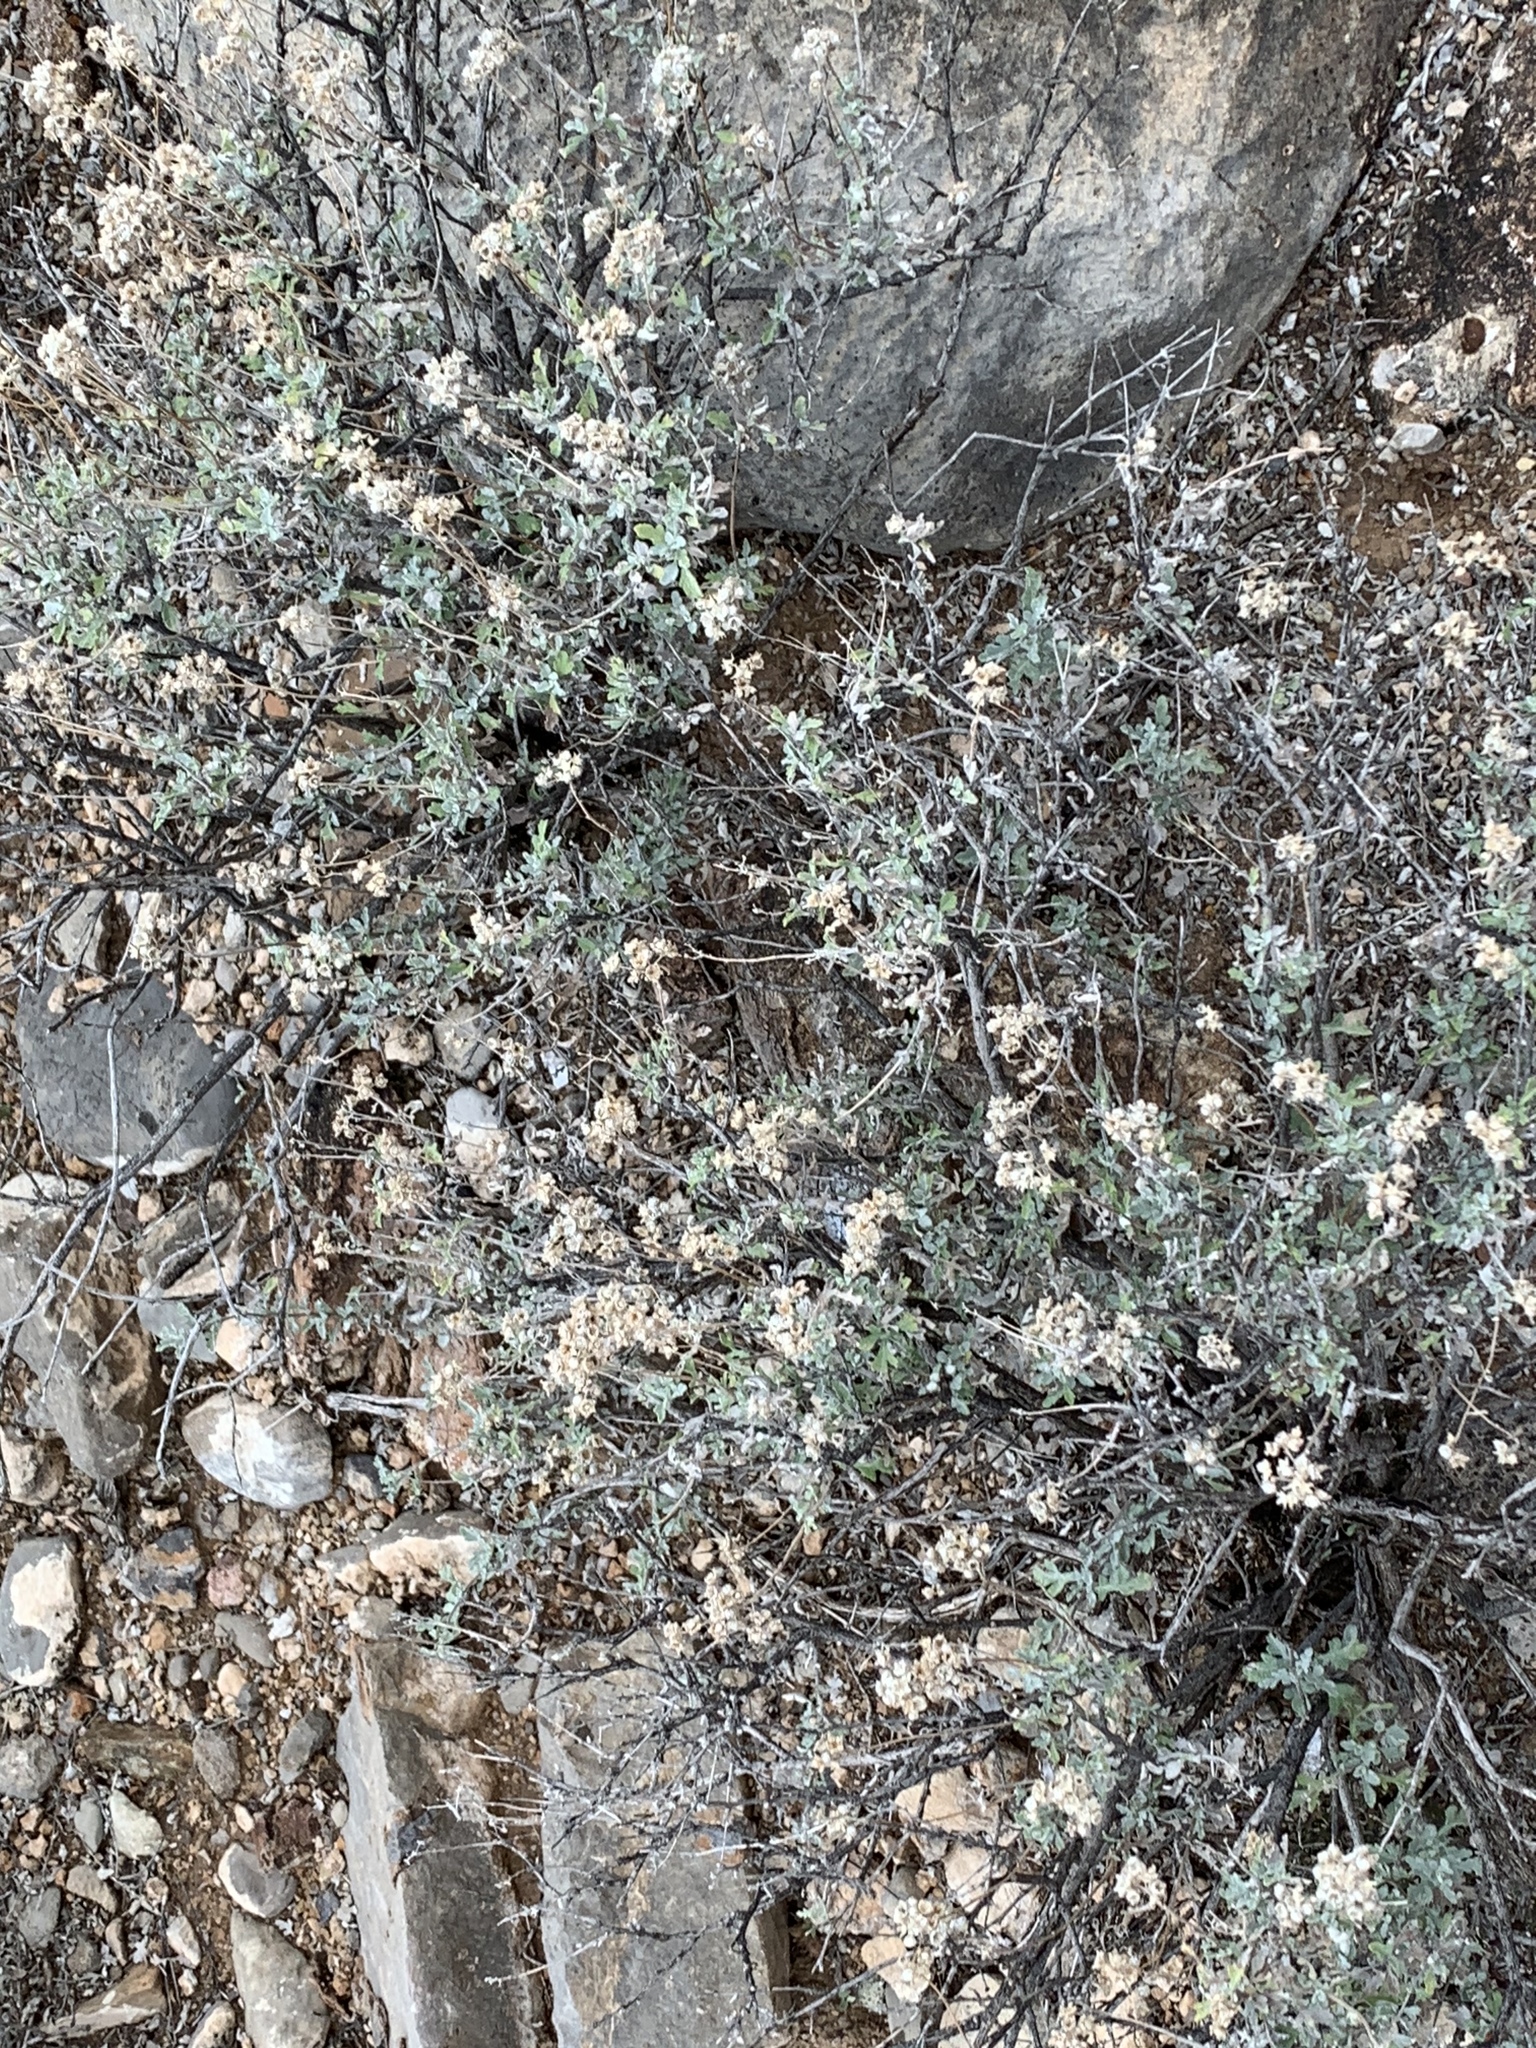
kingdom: Plantae
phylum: Tracheophyta
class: Magnoliopsida
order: Asterales
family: Asteraceae
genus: Parthenium
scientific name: Parthenium incanum
